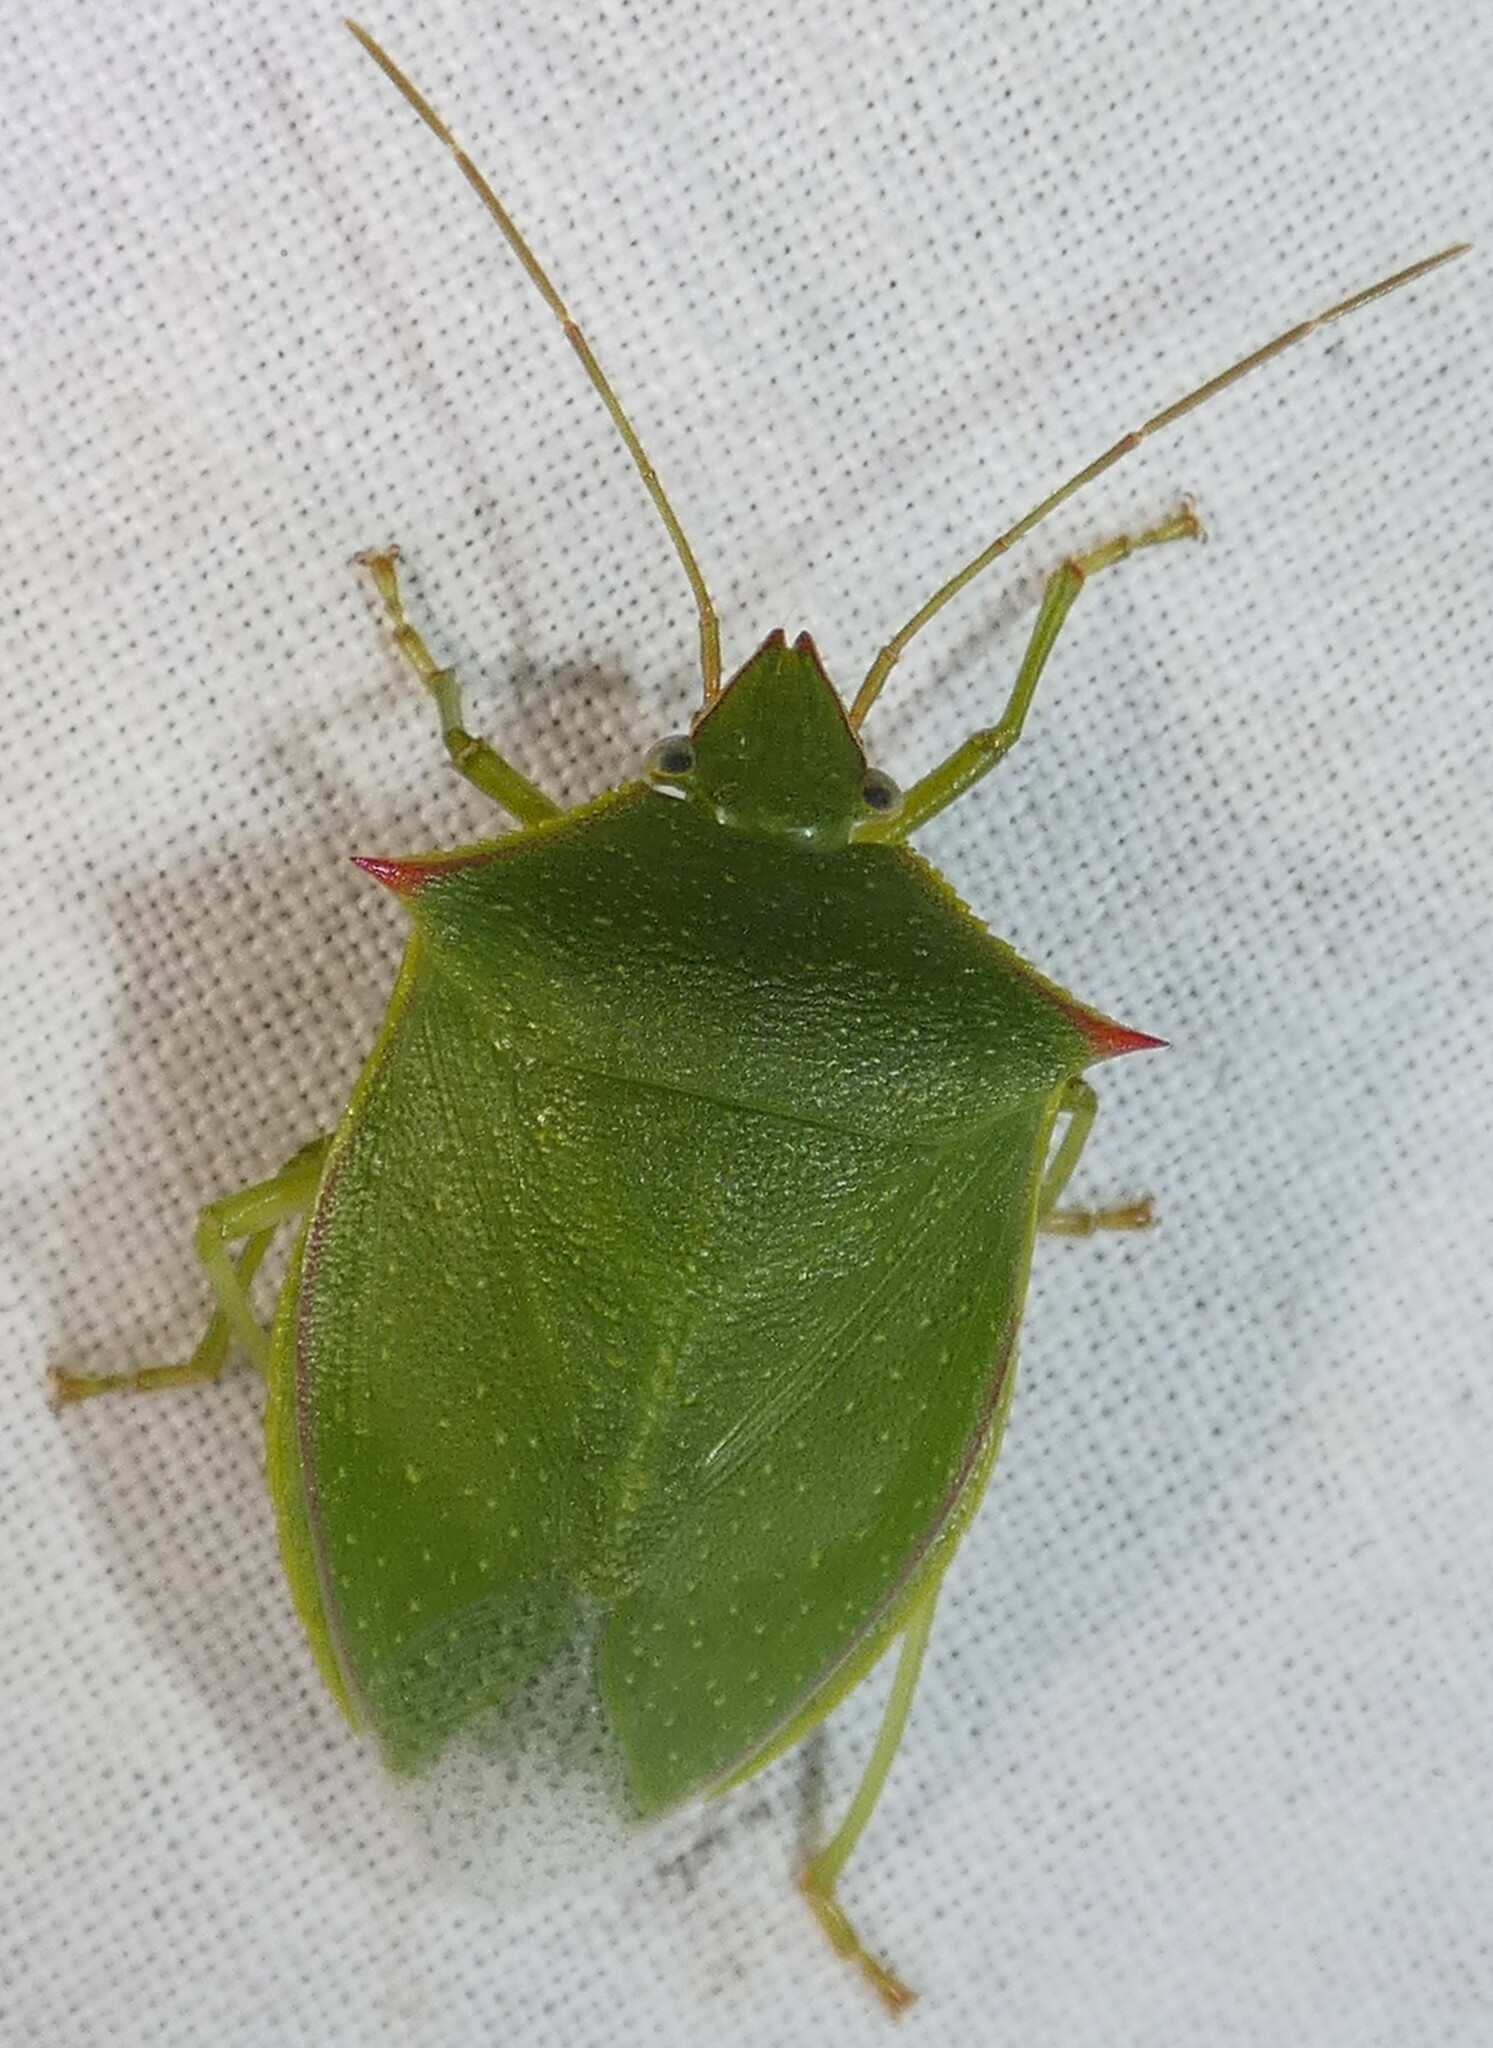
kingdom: Animalia
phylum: Arthropoda
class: Insecta
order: Hemiptera
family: Pentatomidae
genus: Loxa
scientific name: Loxa flavicollis
